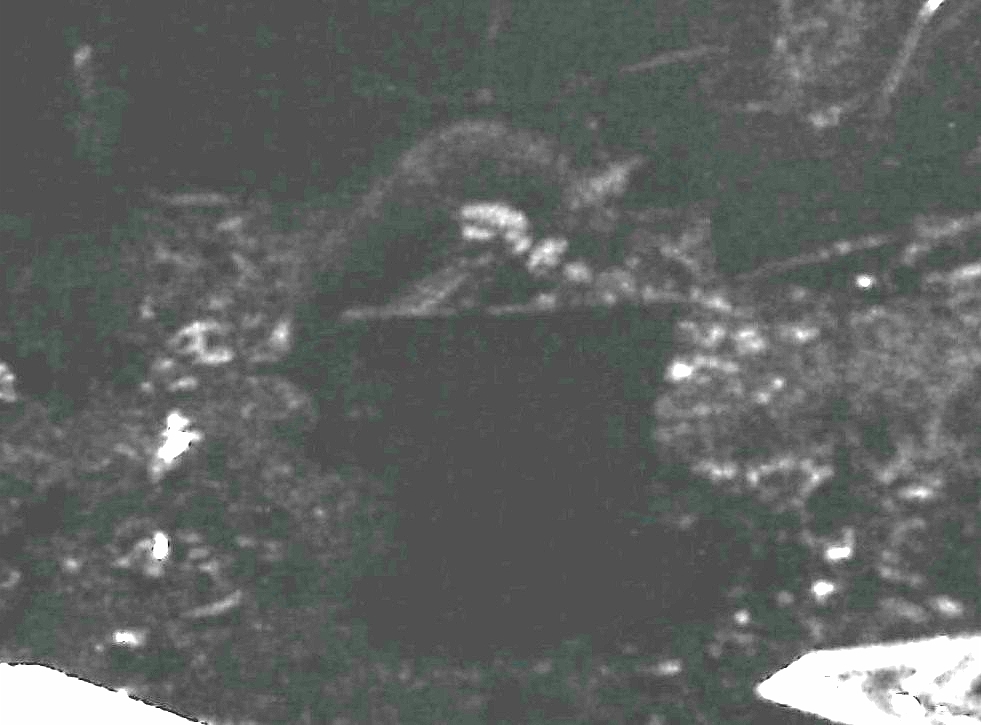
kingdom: Animalia
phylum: Chordata
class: Mammalia
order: Carnivora
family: Procyonidae
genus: Procyon
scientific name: Procyon lotor
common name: Raccoon
